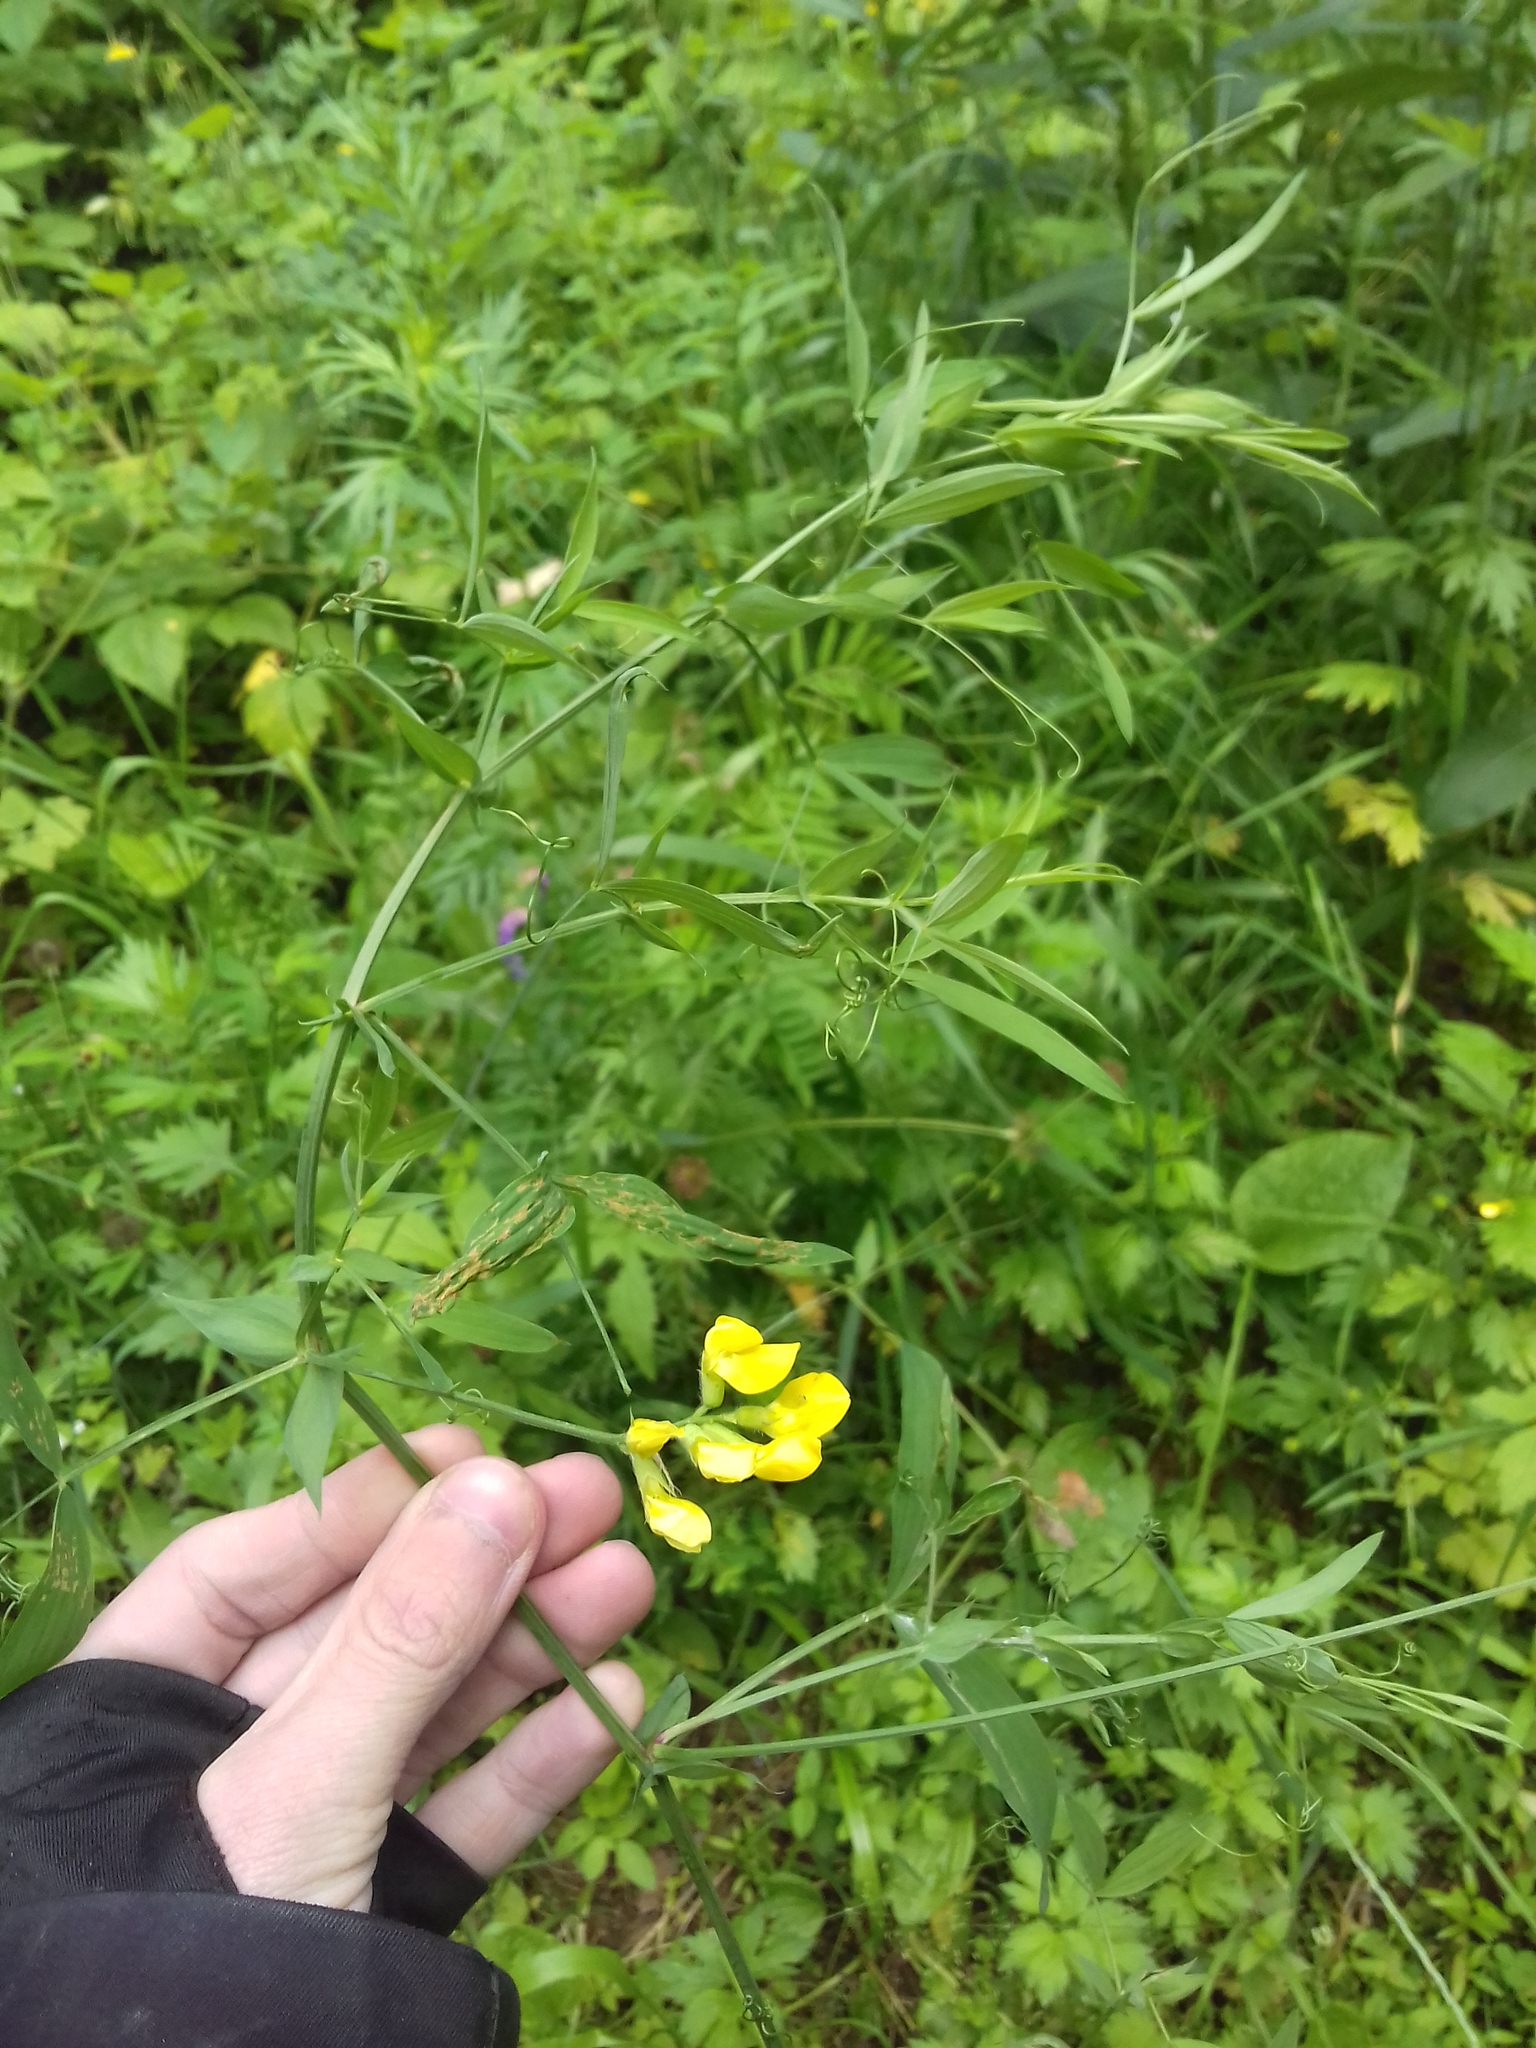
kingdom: Plantae
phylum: Tracheophyta
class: Magnoliopsida
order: Fabales
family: Fabaceae
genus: Lathyrus
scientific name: Lathyrus pratensis
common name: Meadow vetchling
